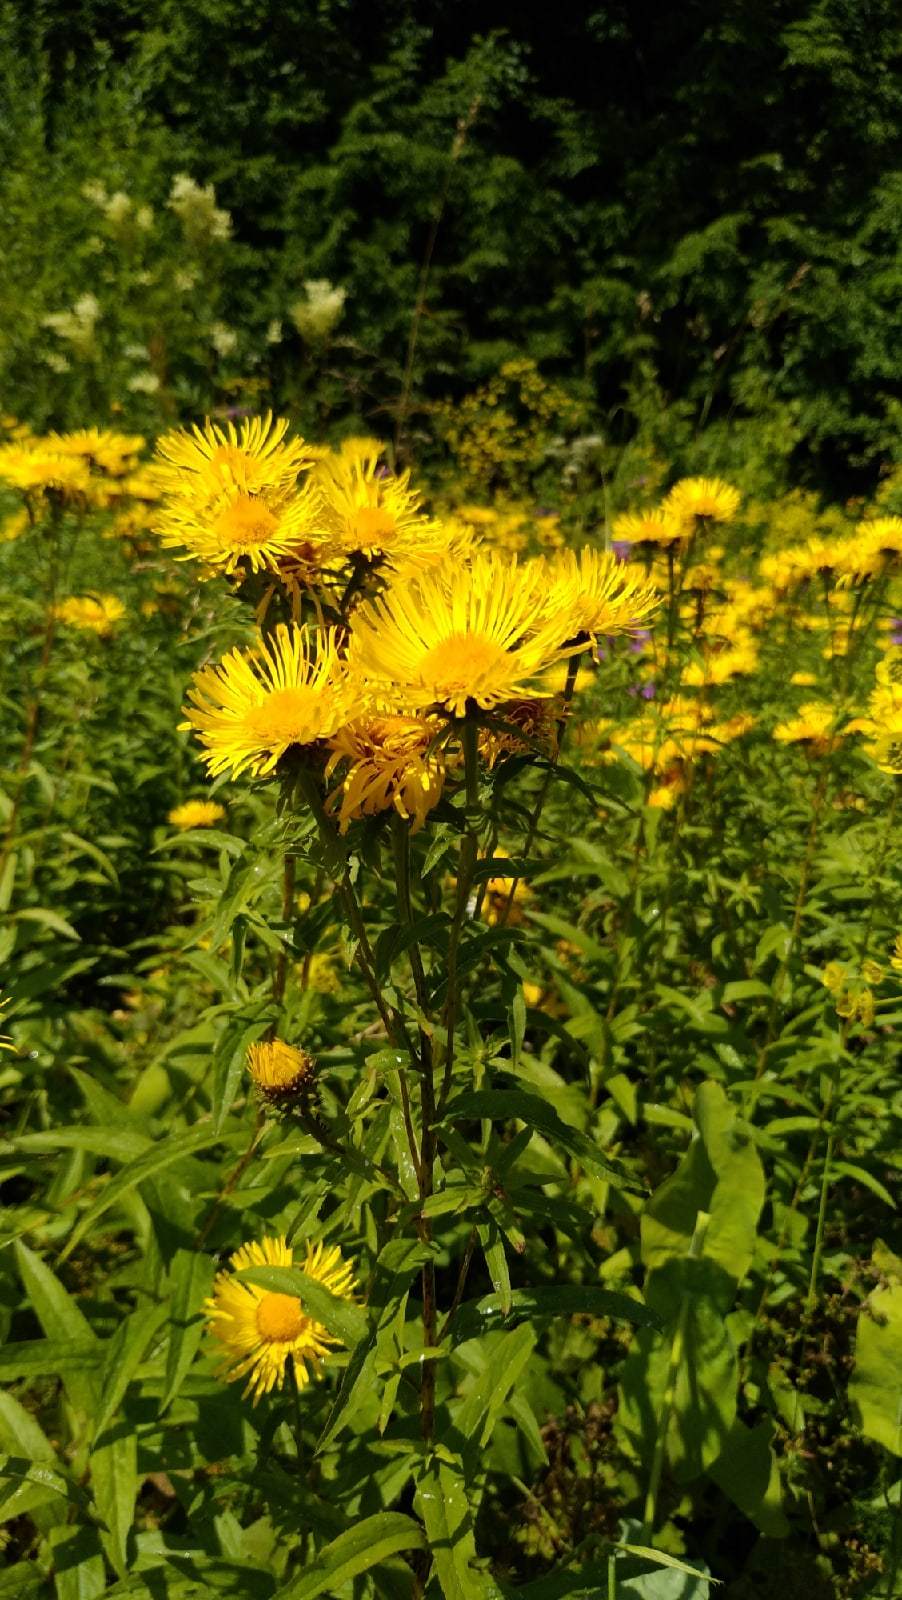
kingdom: Plantae
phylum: Tracheophyta
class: Magnoliopsida
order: Asterales
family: Asteraceae
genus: Pentanema
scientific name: Pentanema salicinum
